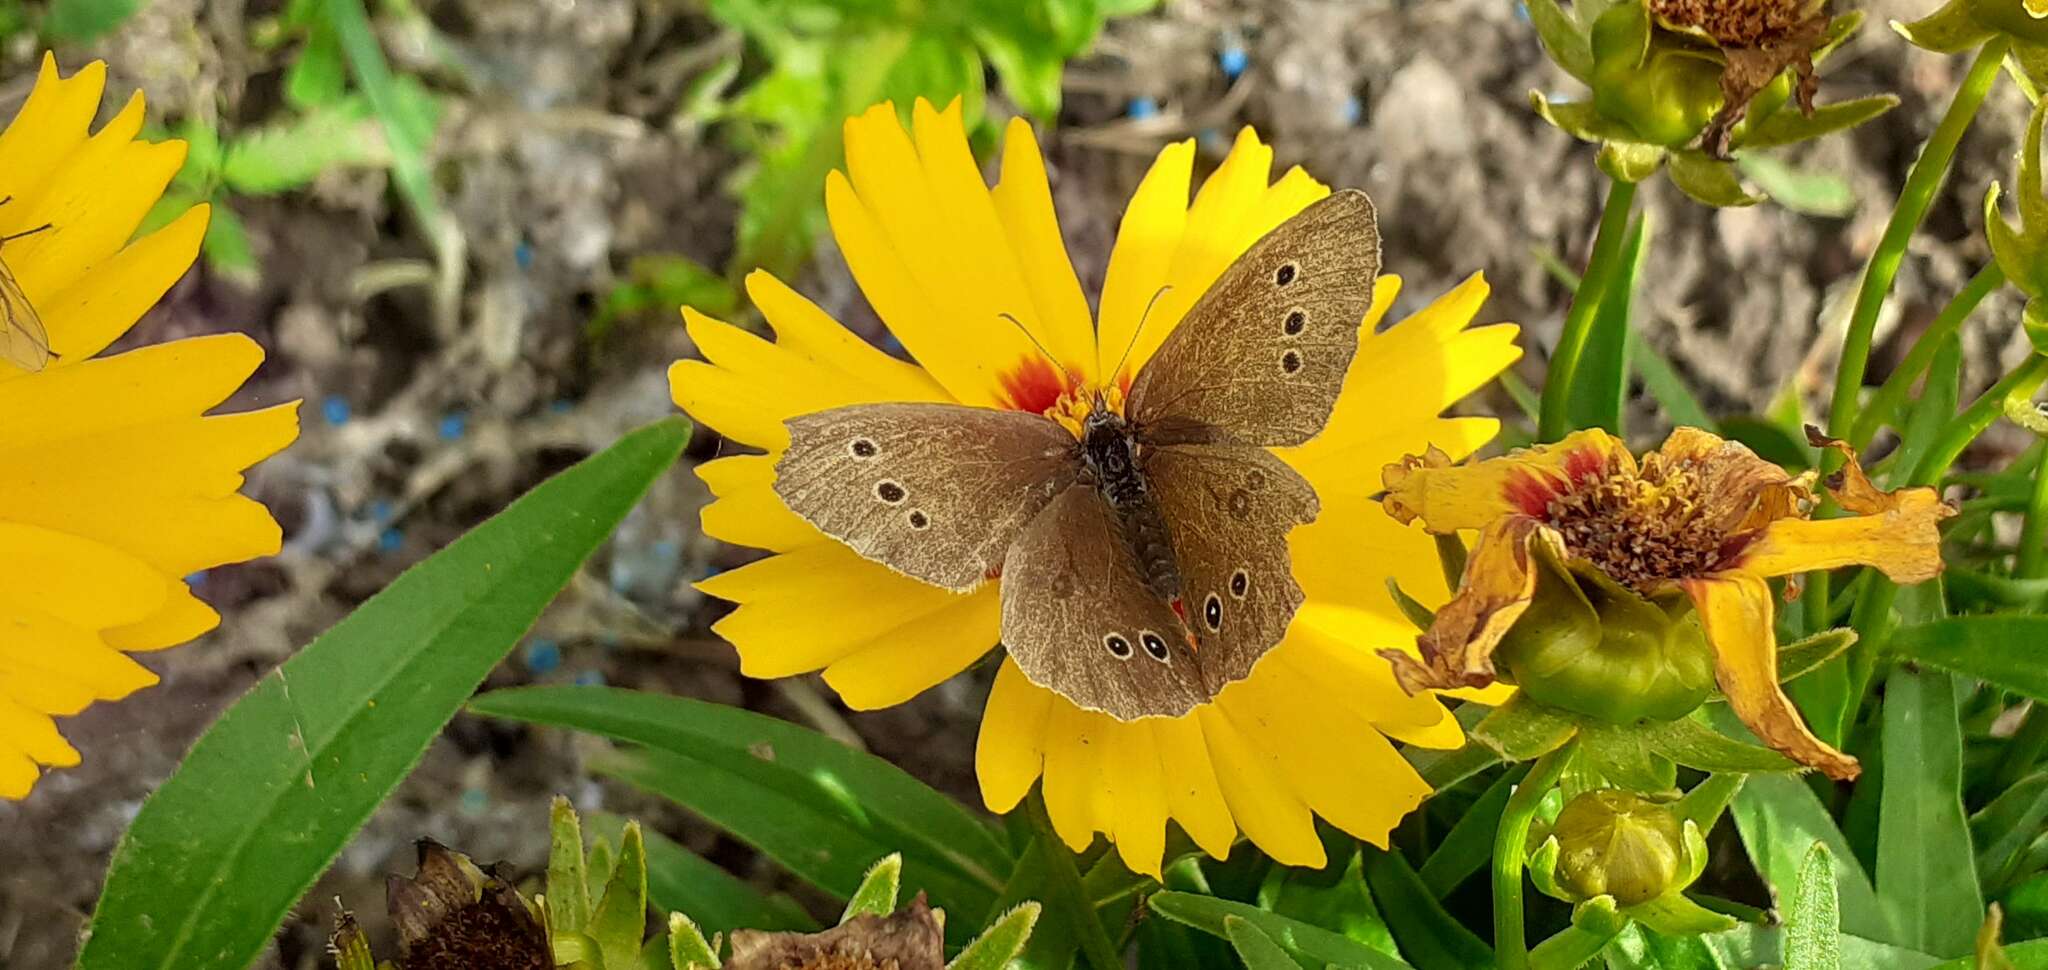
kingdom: Animalia
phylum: Arthropoda
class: Insecta
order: Lepidoptera
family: Nymphalidae
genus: Aphantopus
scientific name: Aphantopus hyperantus
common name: Ringlet
